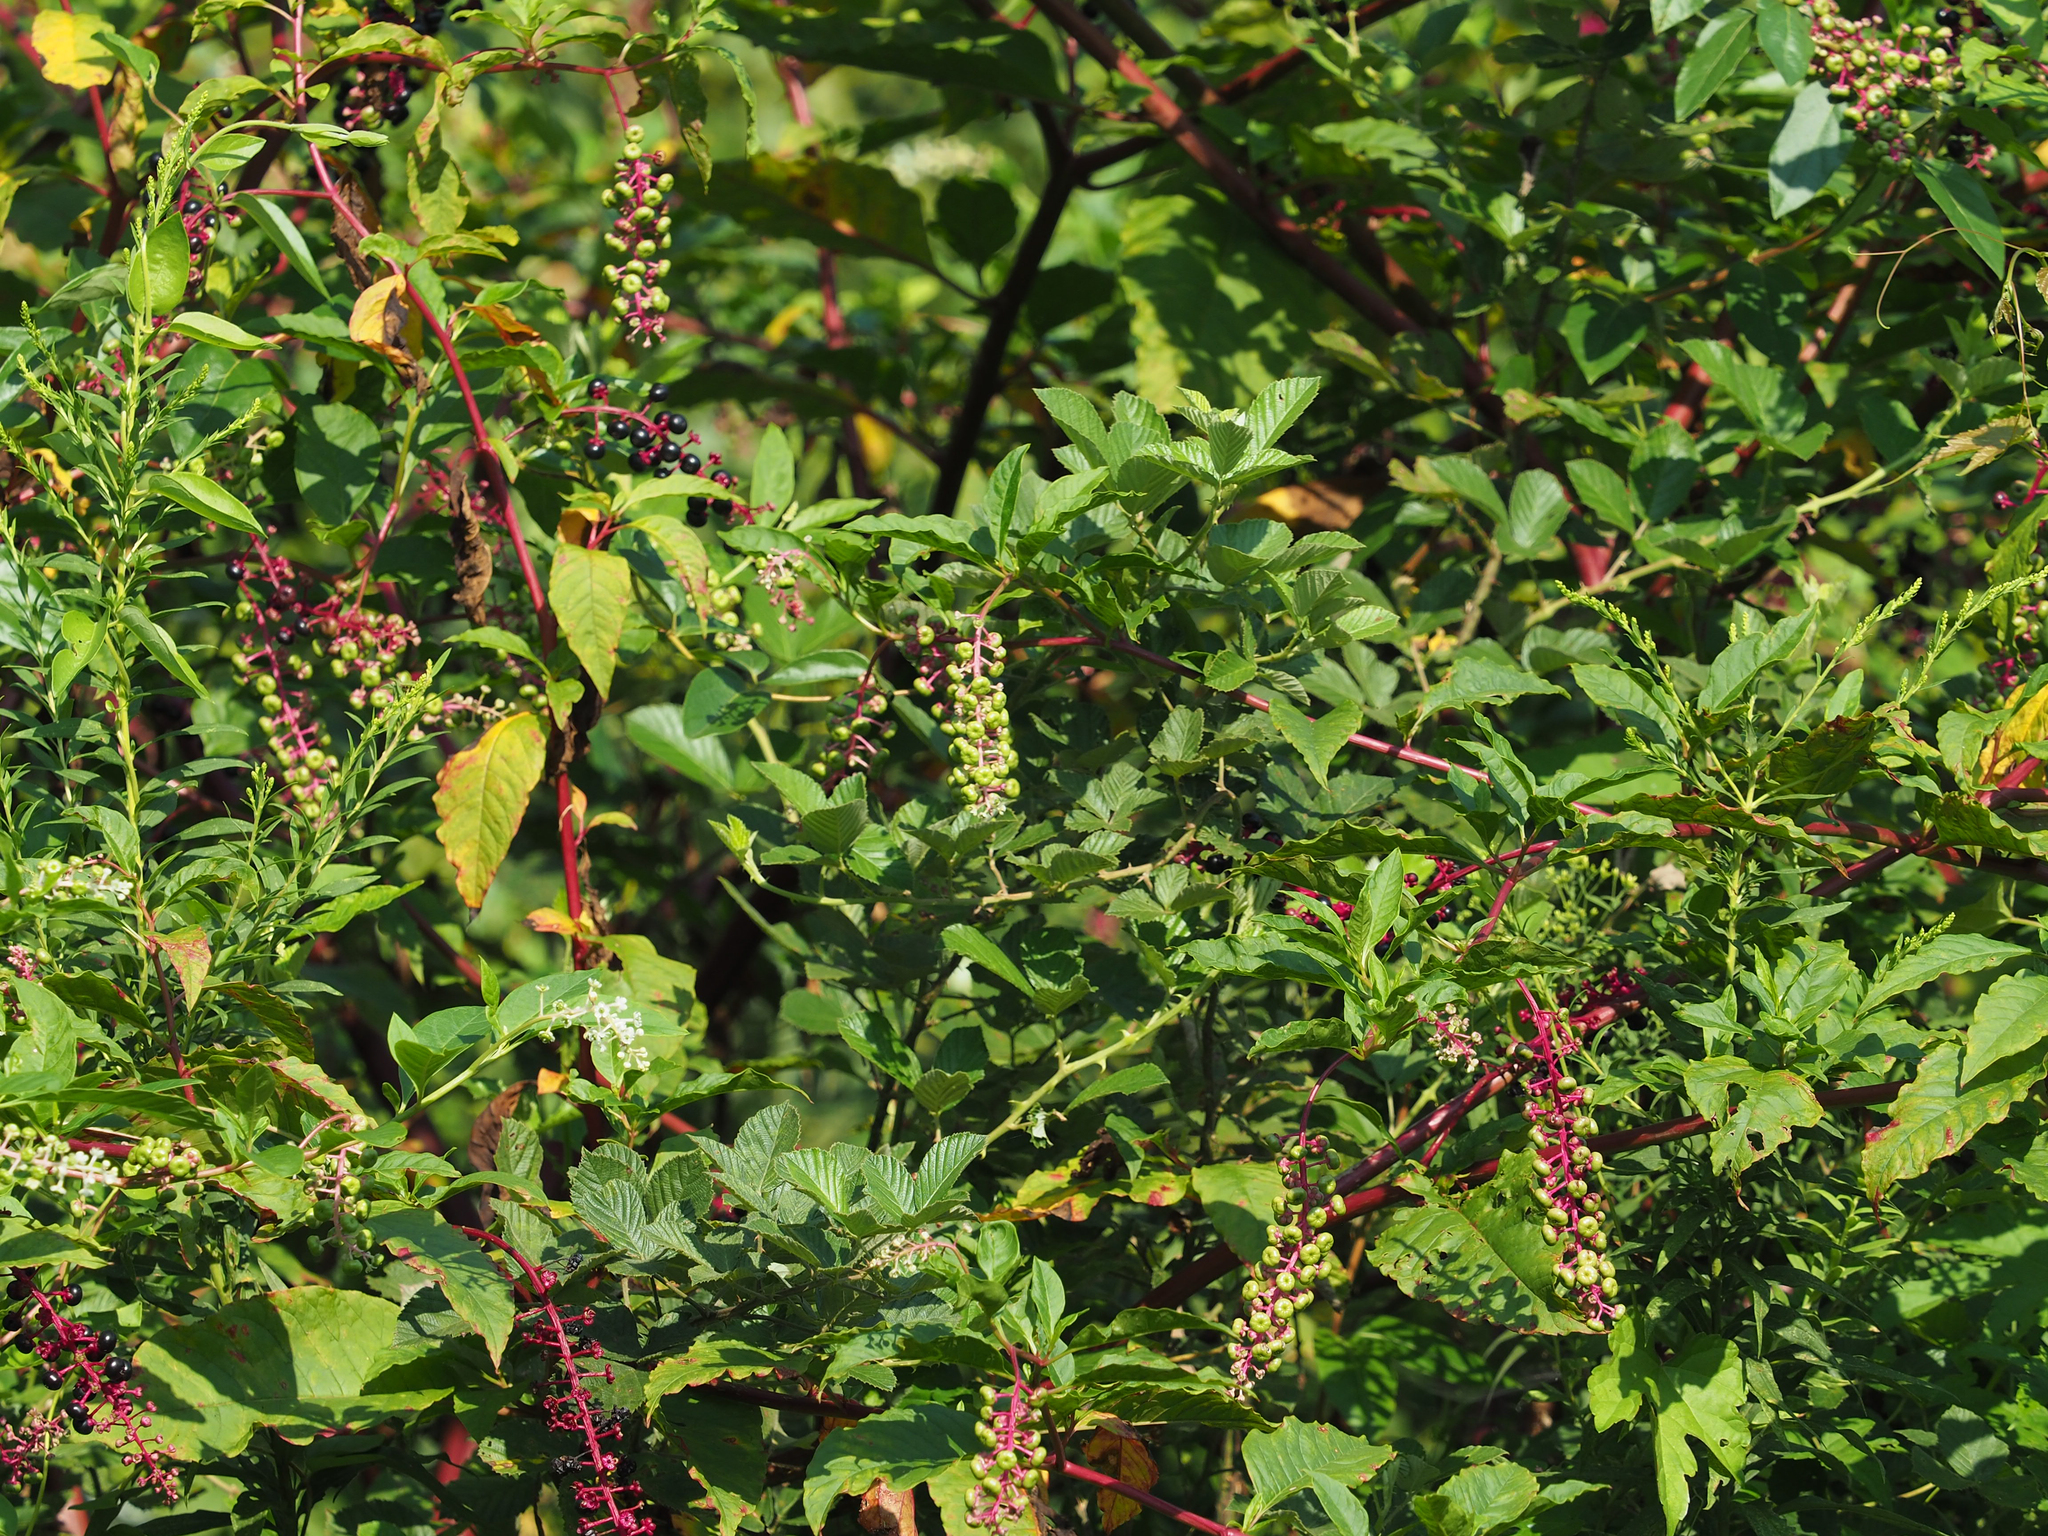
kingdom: Plantae
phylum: Tracheophyta
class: Magnoliopsida
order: Caryophyllales
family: Phytolaccaceae
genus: Phytolacca
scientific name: Phytolacca americana
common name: American pokeweed
